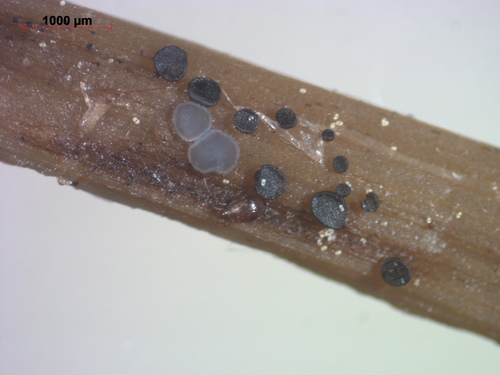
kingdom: Fungi
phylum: Ascomycota
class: Leotiomycetes
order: Helotiales
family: Mollisiaceae
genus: Mollisia
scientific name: Mollisia
